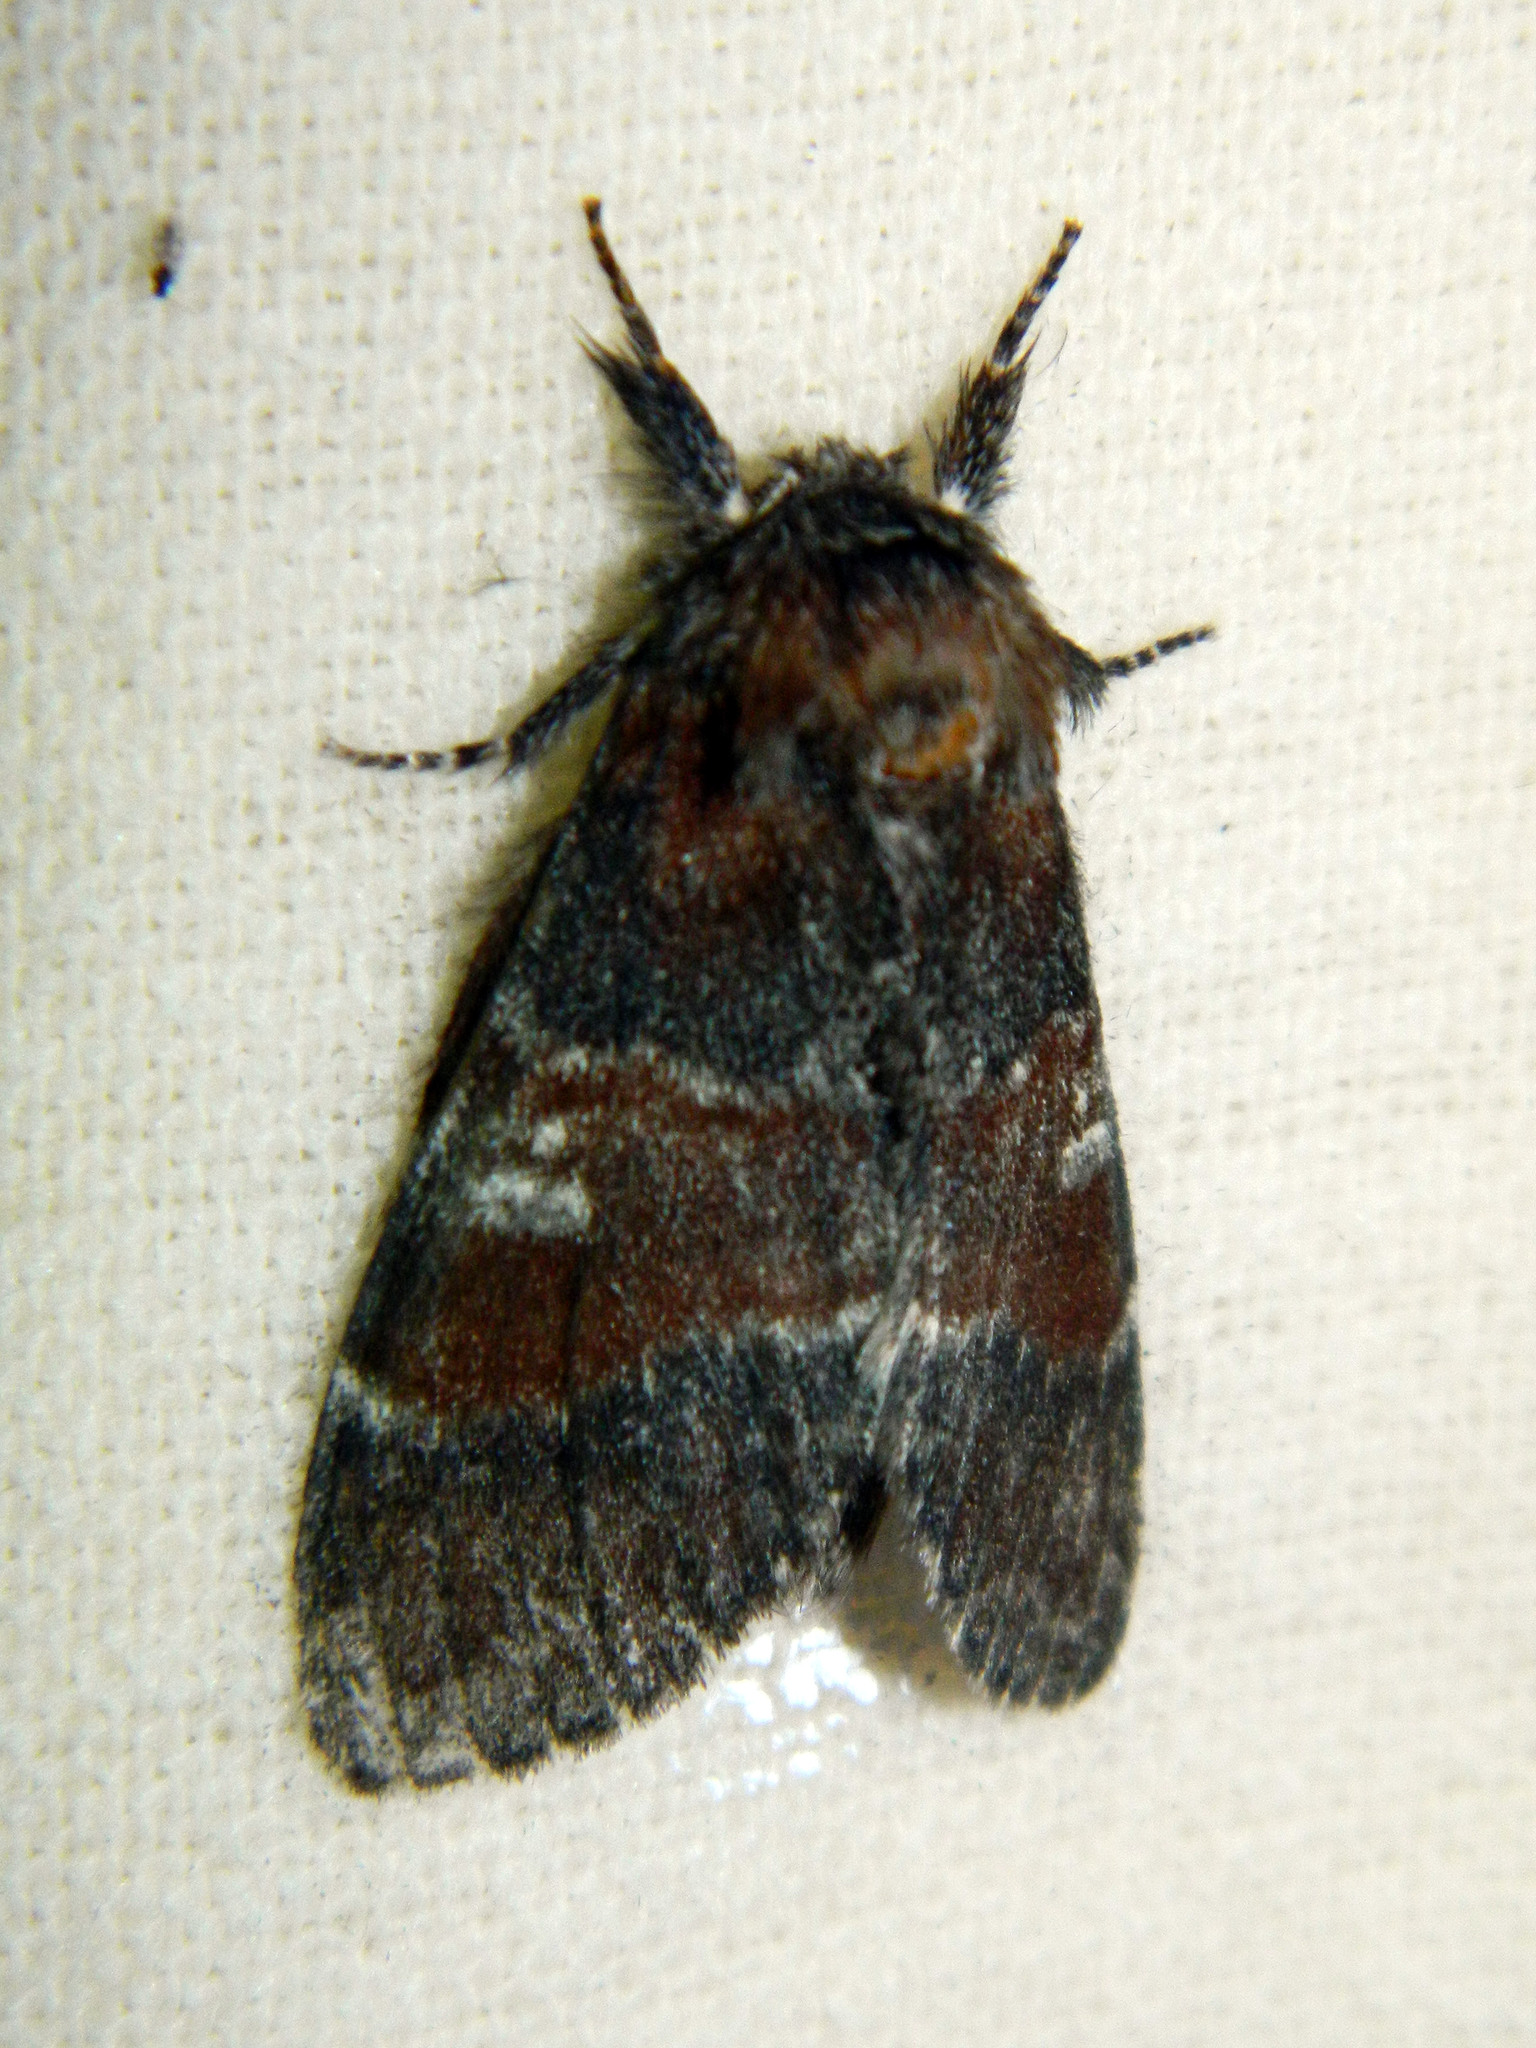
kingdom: Animalia
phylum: Arthropoda
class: Insecta
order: Lepidoptera
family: Notodontidae
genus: Peridea
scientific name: Peridea ferruginea
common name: Chocolate prominent
